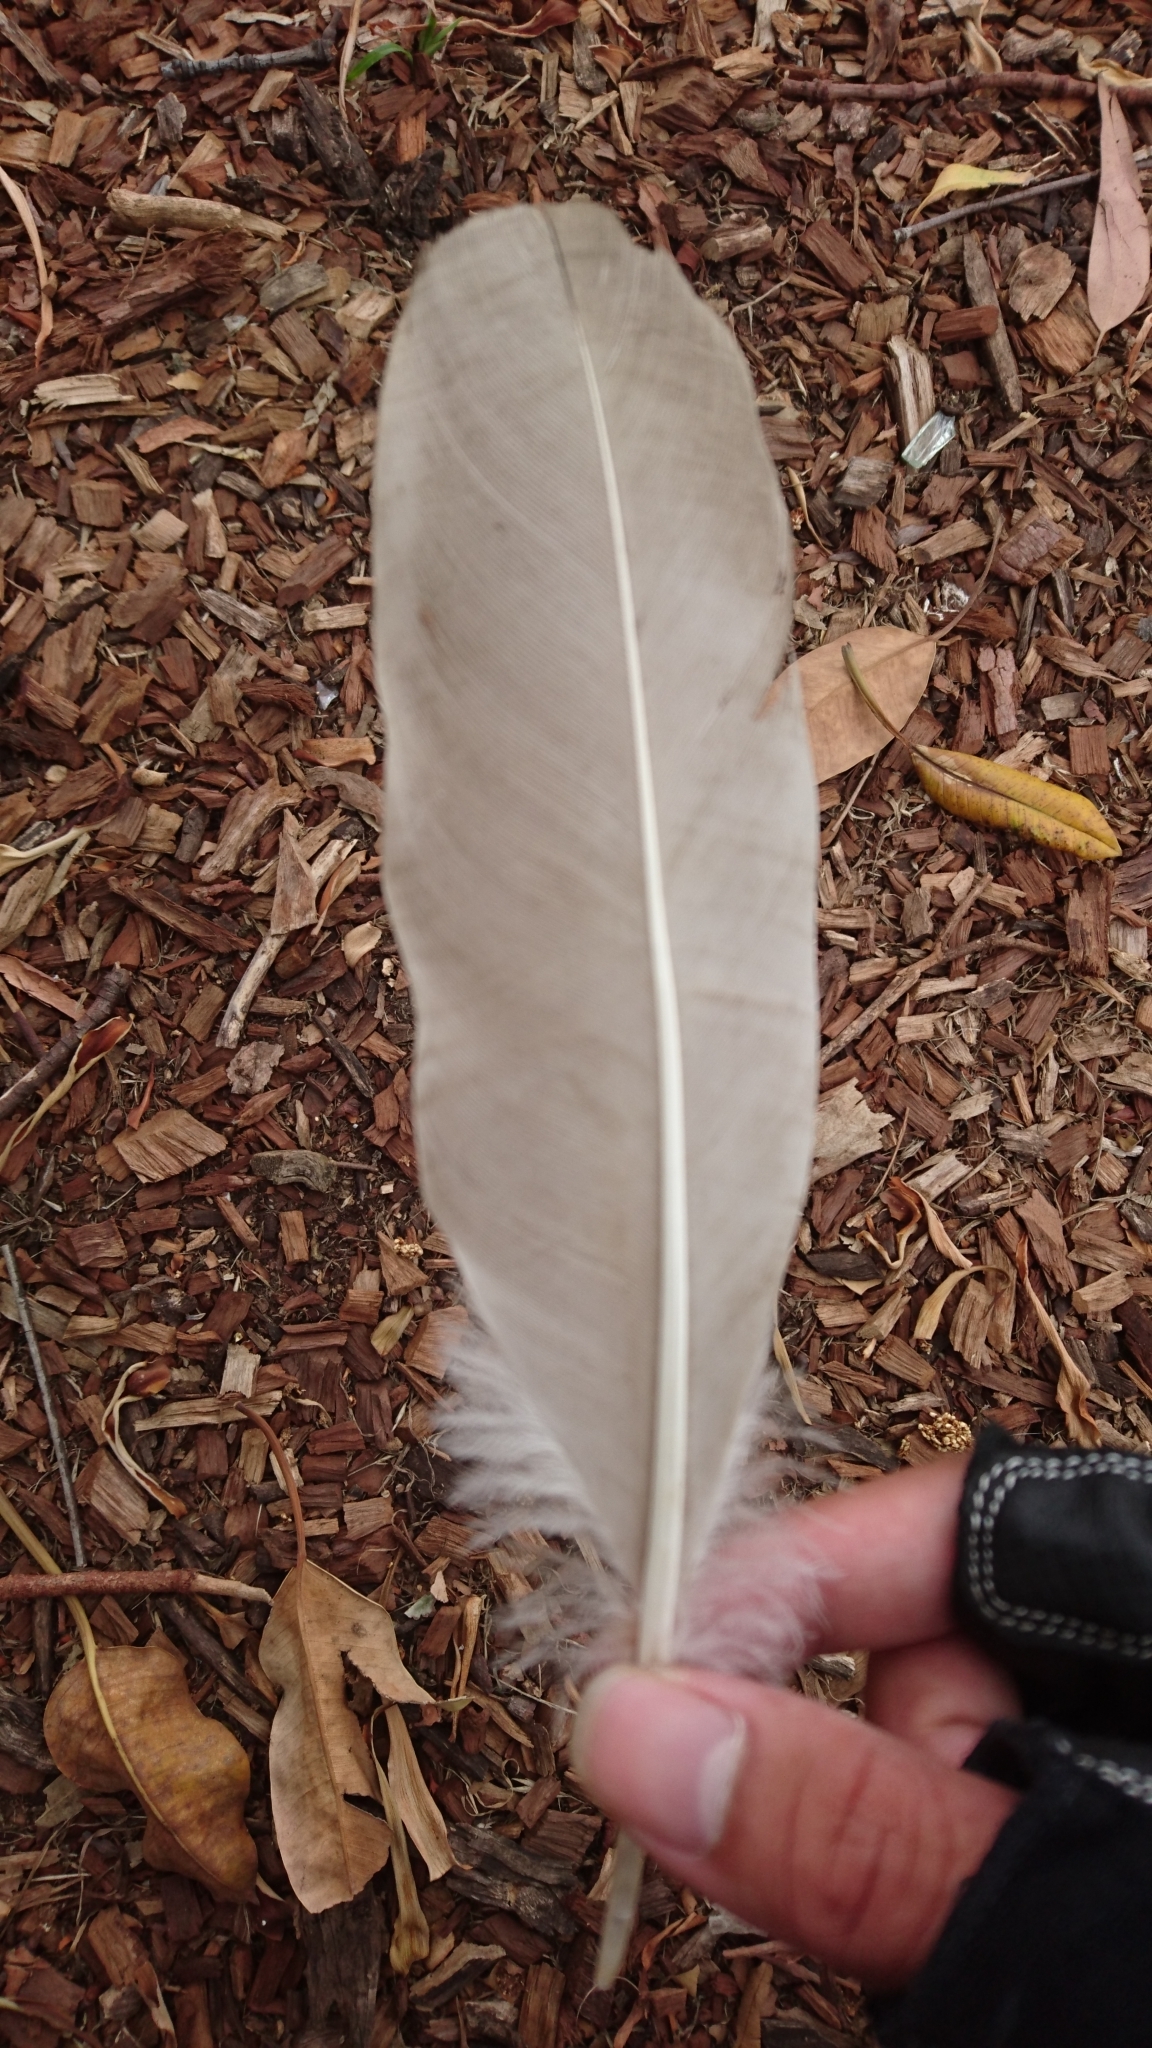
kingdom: Animalia
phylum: Chordata
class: Aves
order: Pelecaniformes
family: Threskiornithidae
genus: Threskiornis
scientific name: Threskiornis molucca
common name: Australian white ibis
